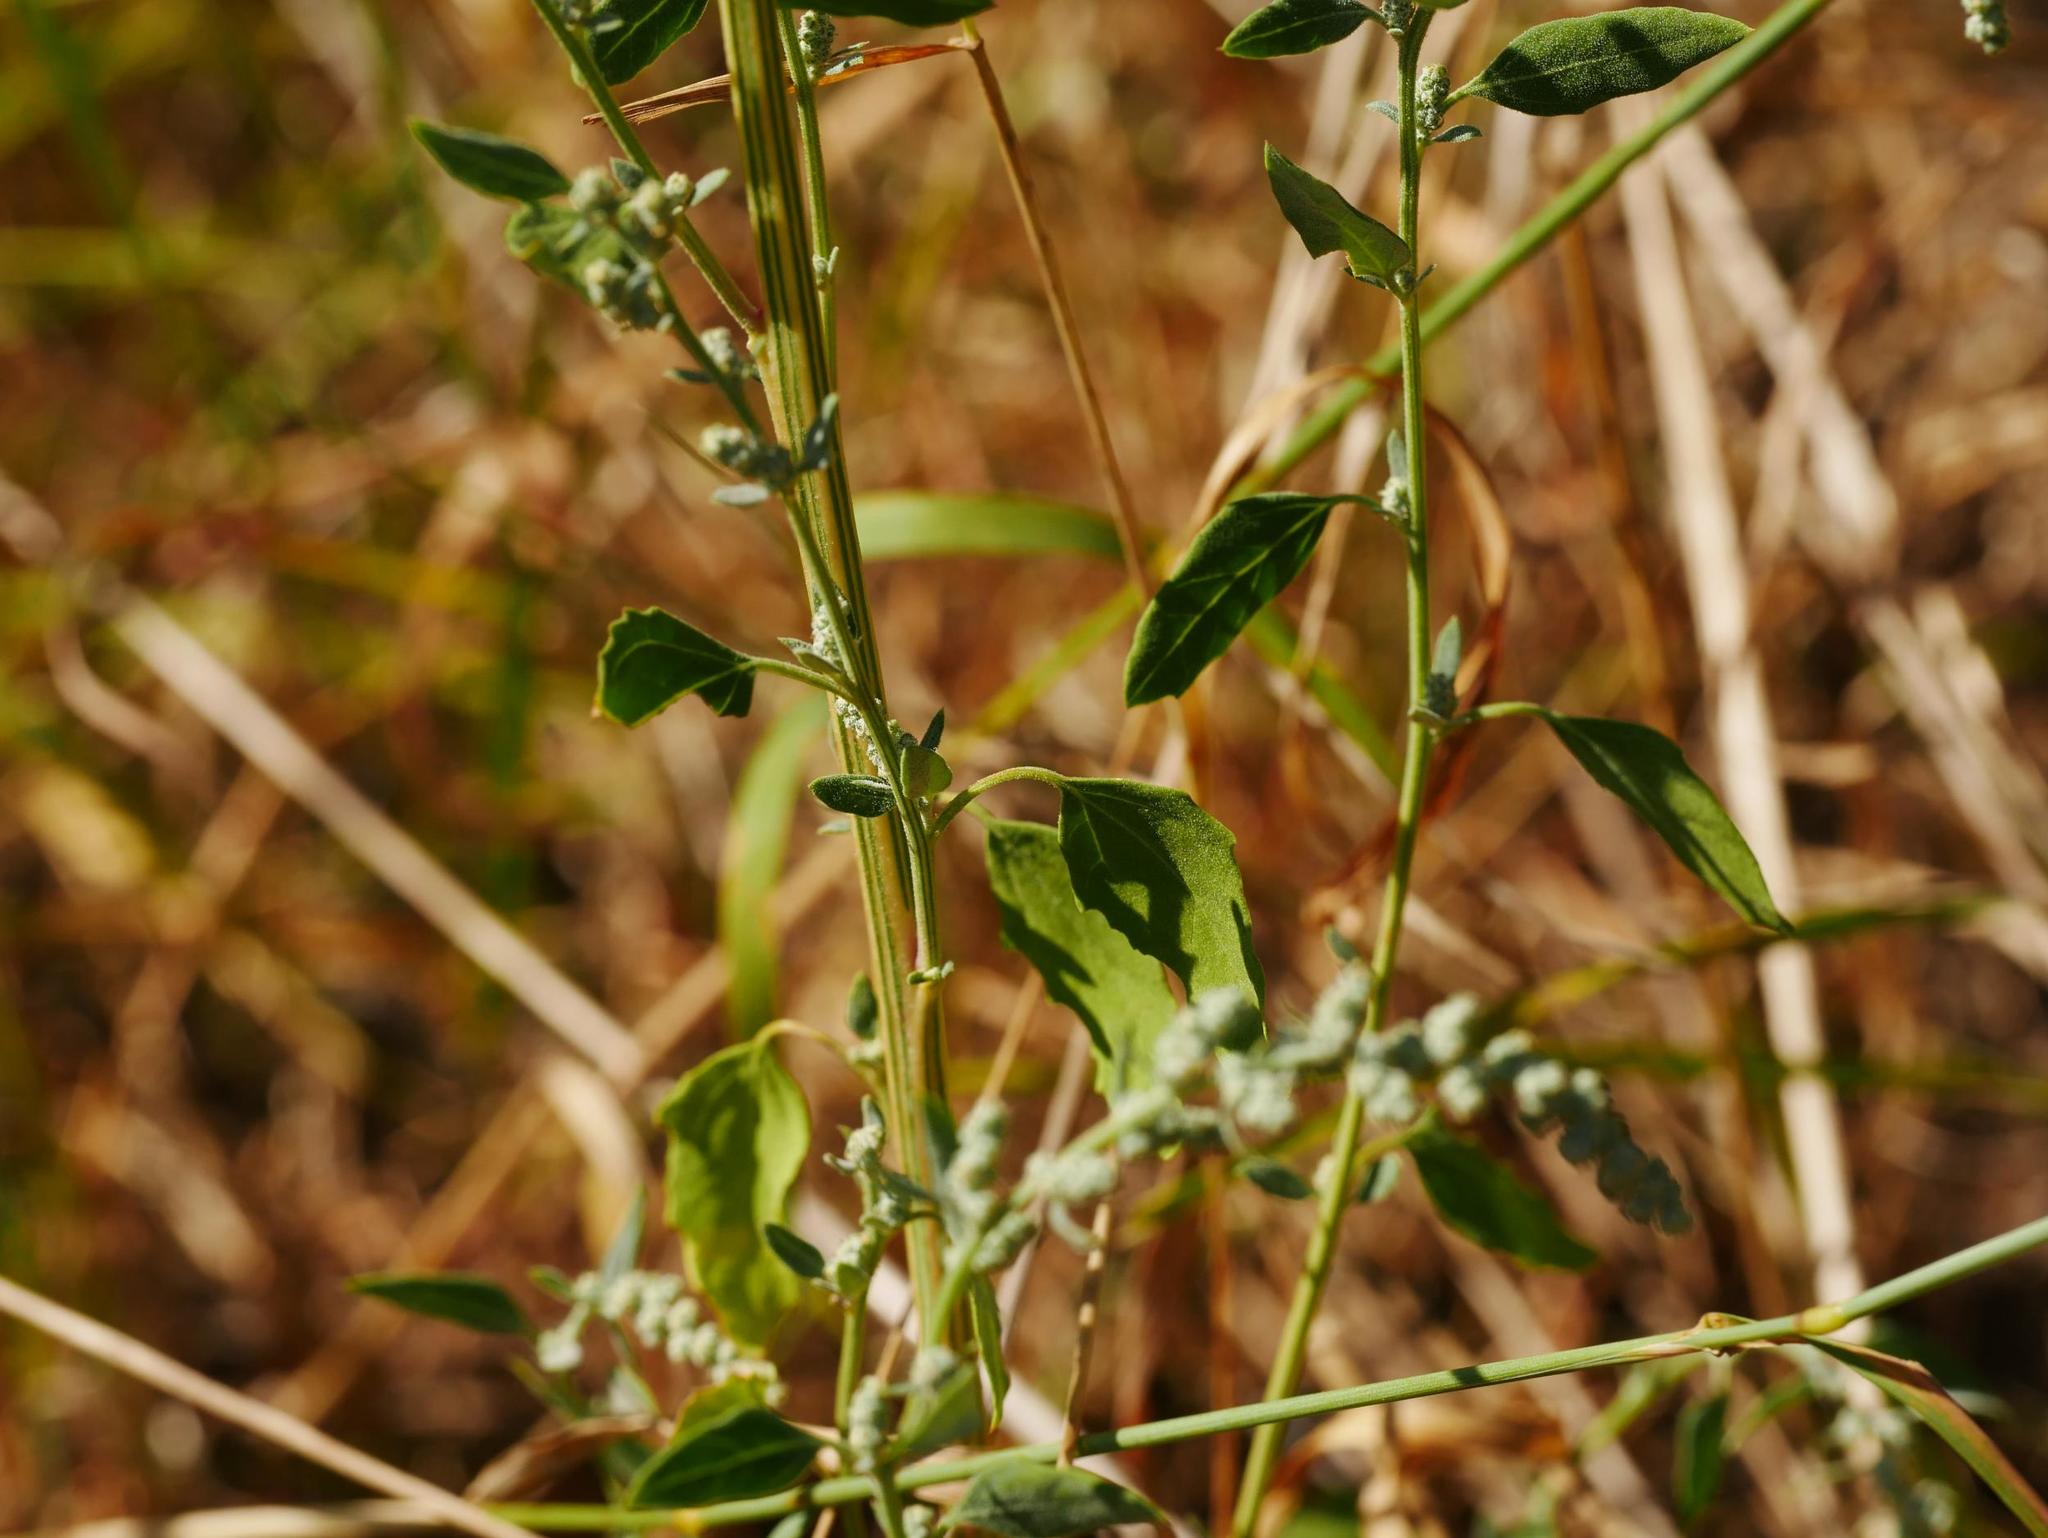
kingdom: Plantae
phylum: Tracheophyta
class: Magnoliopsida
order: Caryophyllales
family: Amaranthaceae
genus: Chenopodium
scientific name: Chenopodium album
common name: Fat-hen
